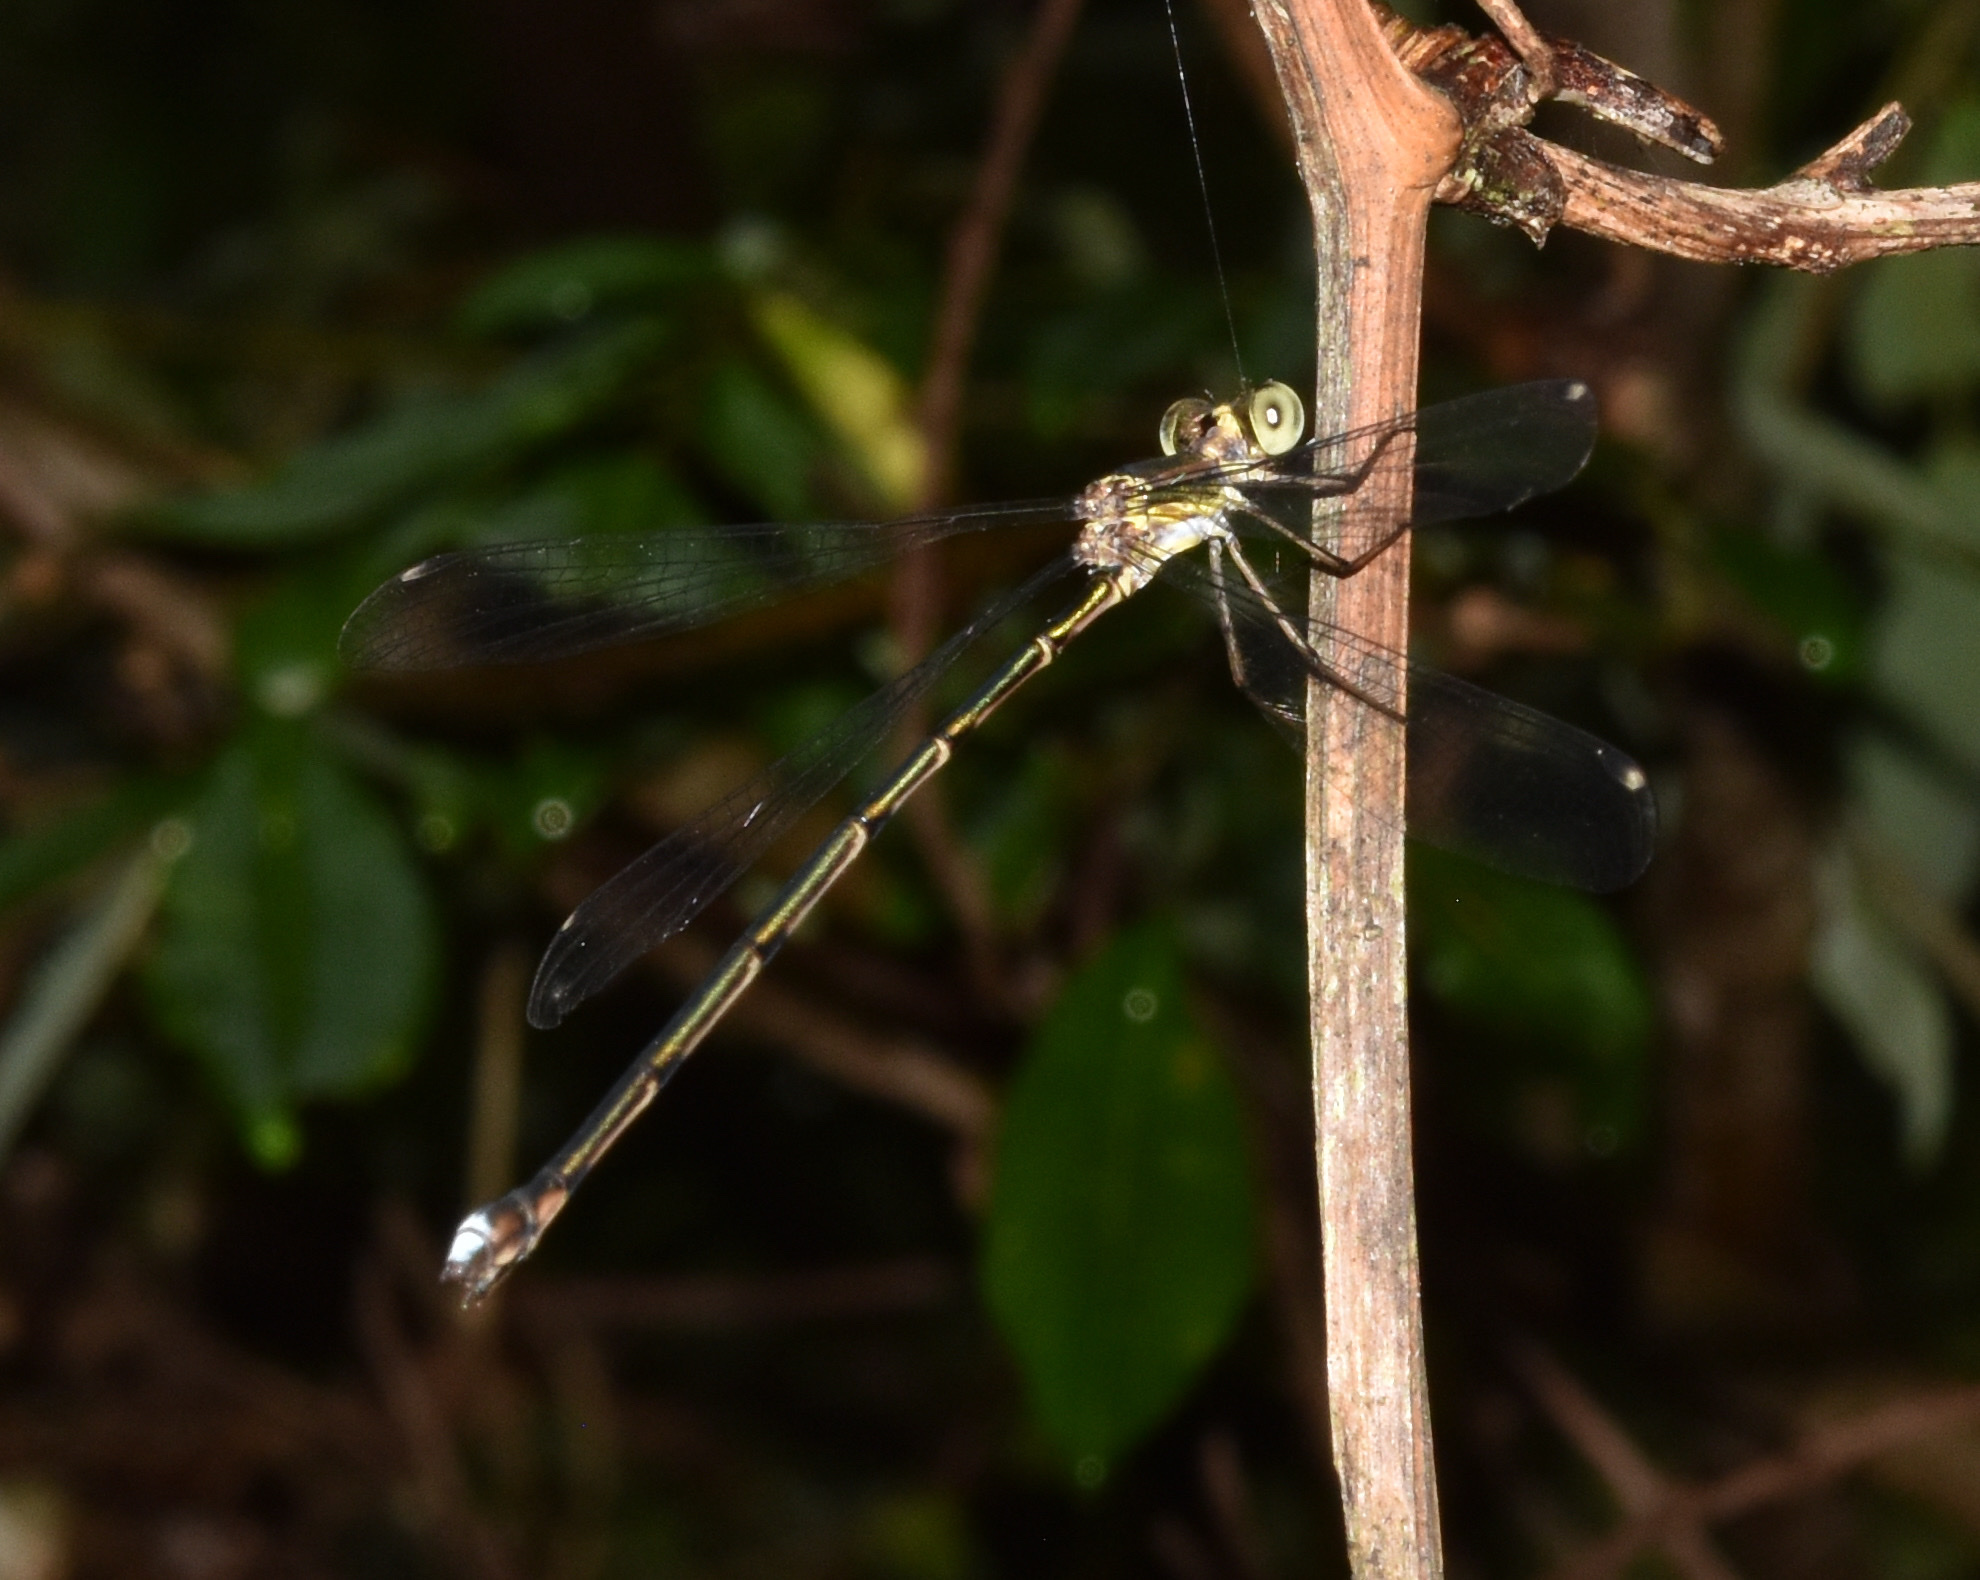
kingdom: Animalia
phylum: Arthropoda
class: Insecta
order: Odonata
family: Synlestidae
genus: Chlorolestes
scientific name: Chlorolestes tessellatus
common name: Forest malachite
